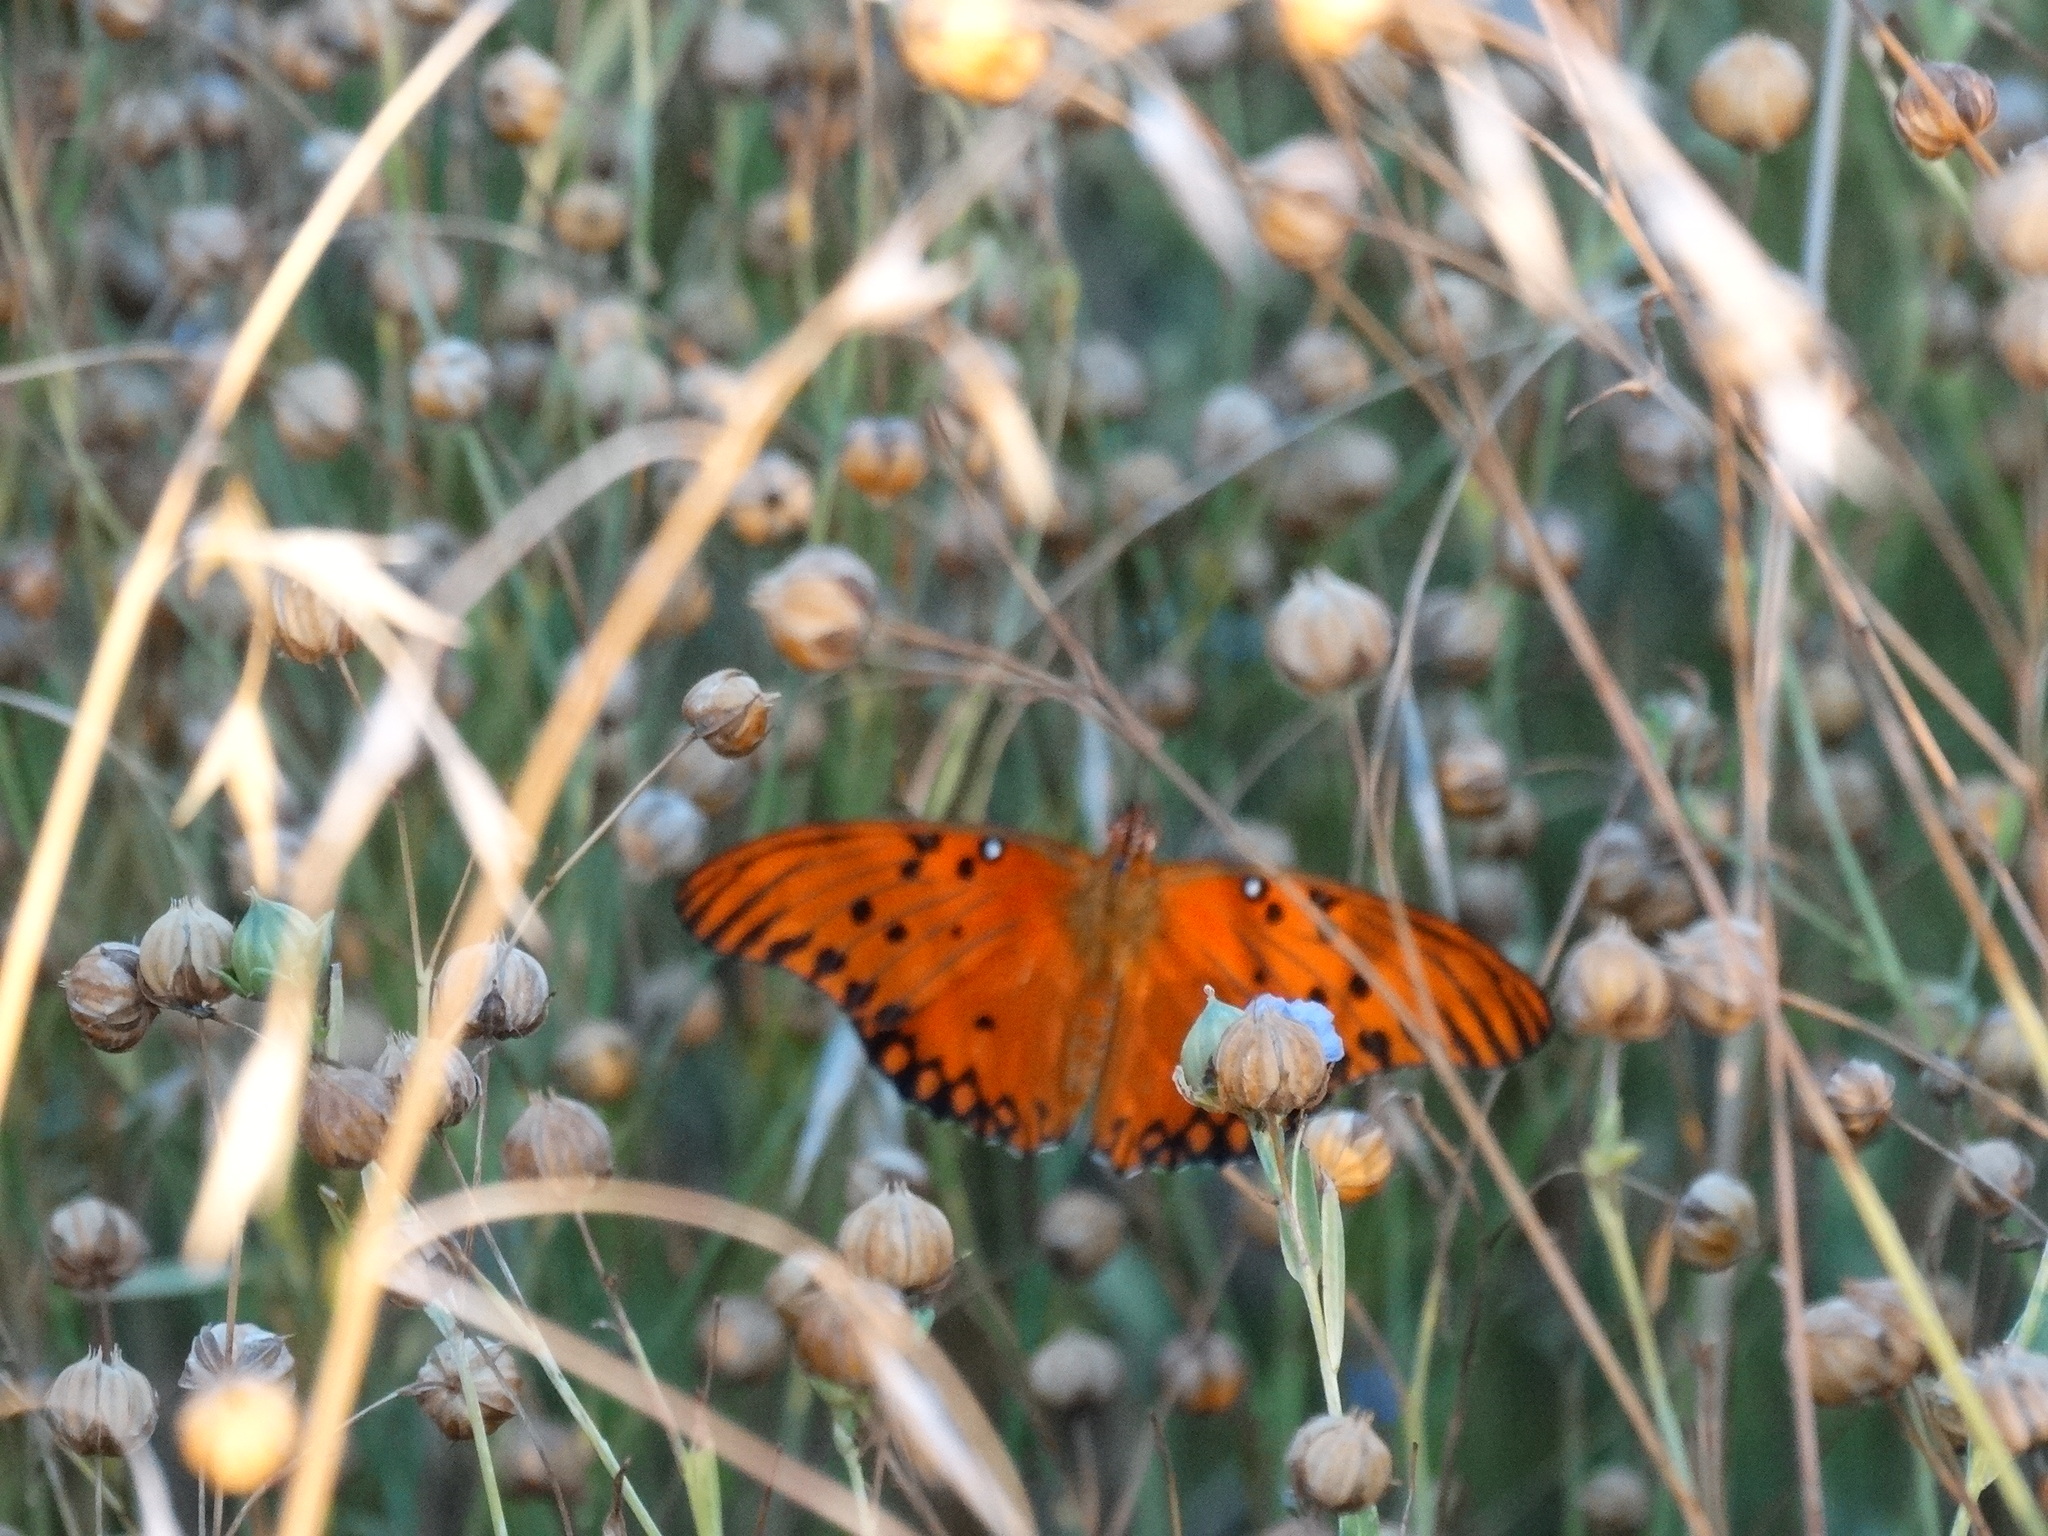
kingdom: Animalia
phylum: Arthropoda
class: Insecta
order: Lepidoptera
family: Nymphalidae
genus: Dione
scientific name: Dione vanillae
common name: Gulf fritillary
